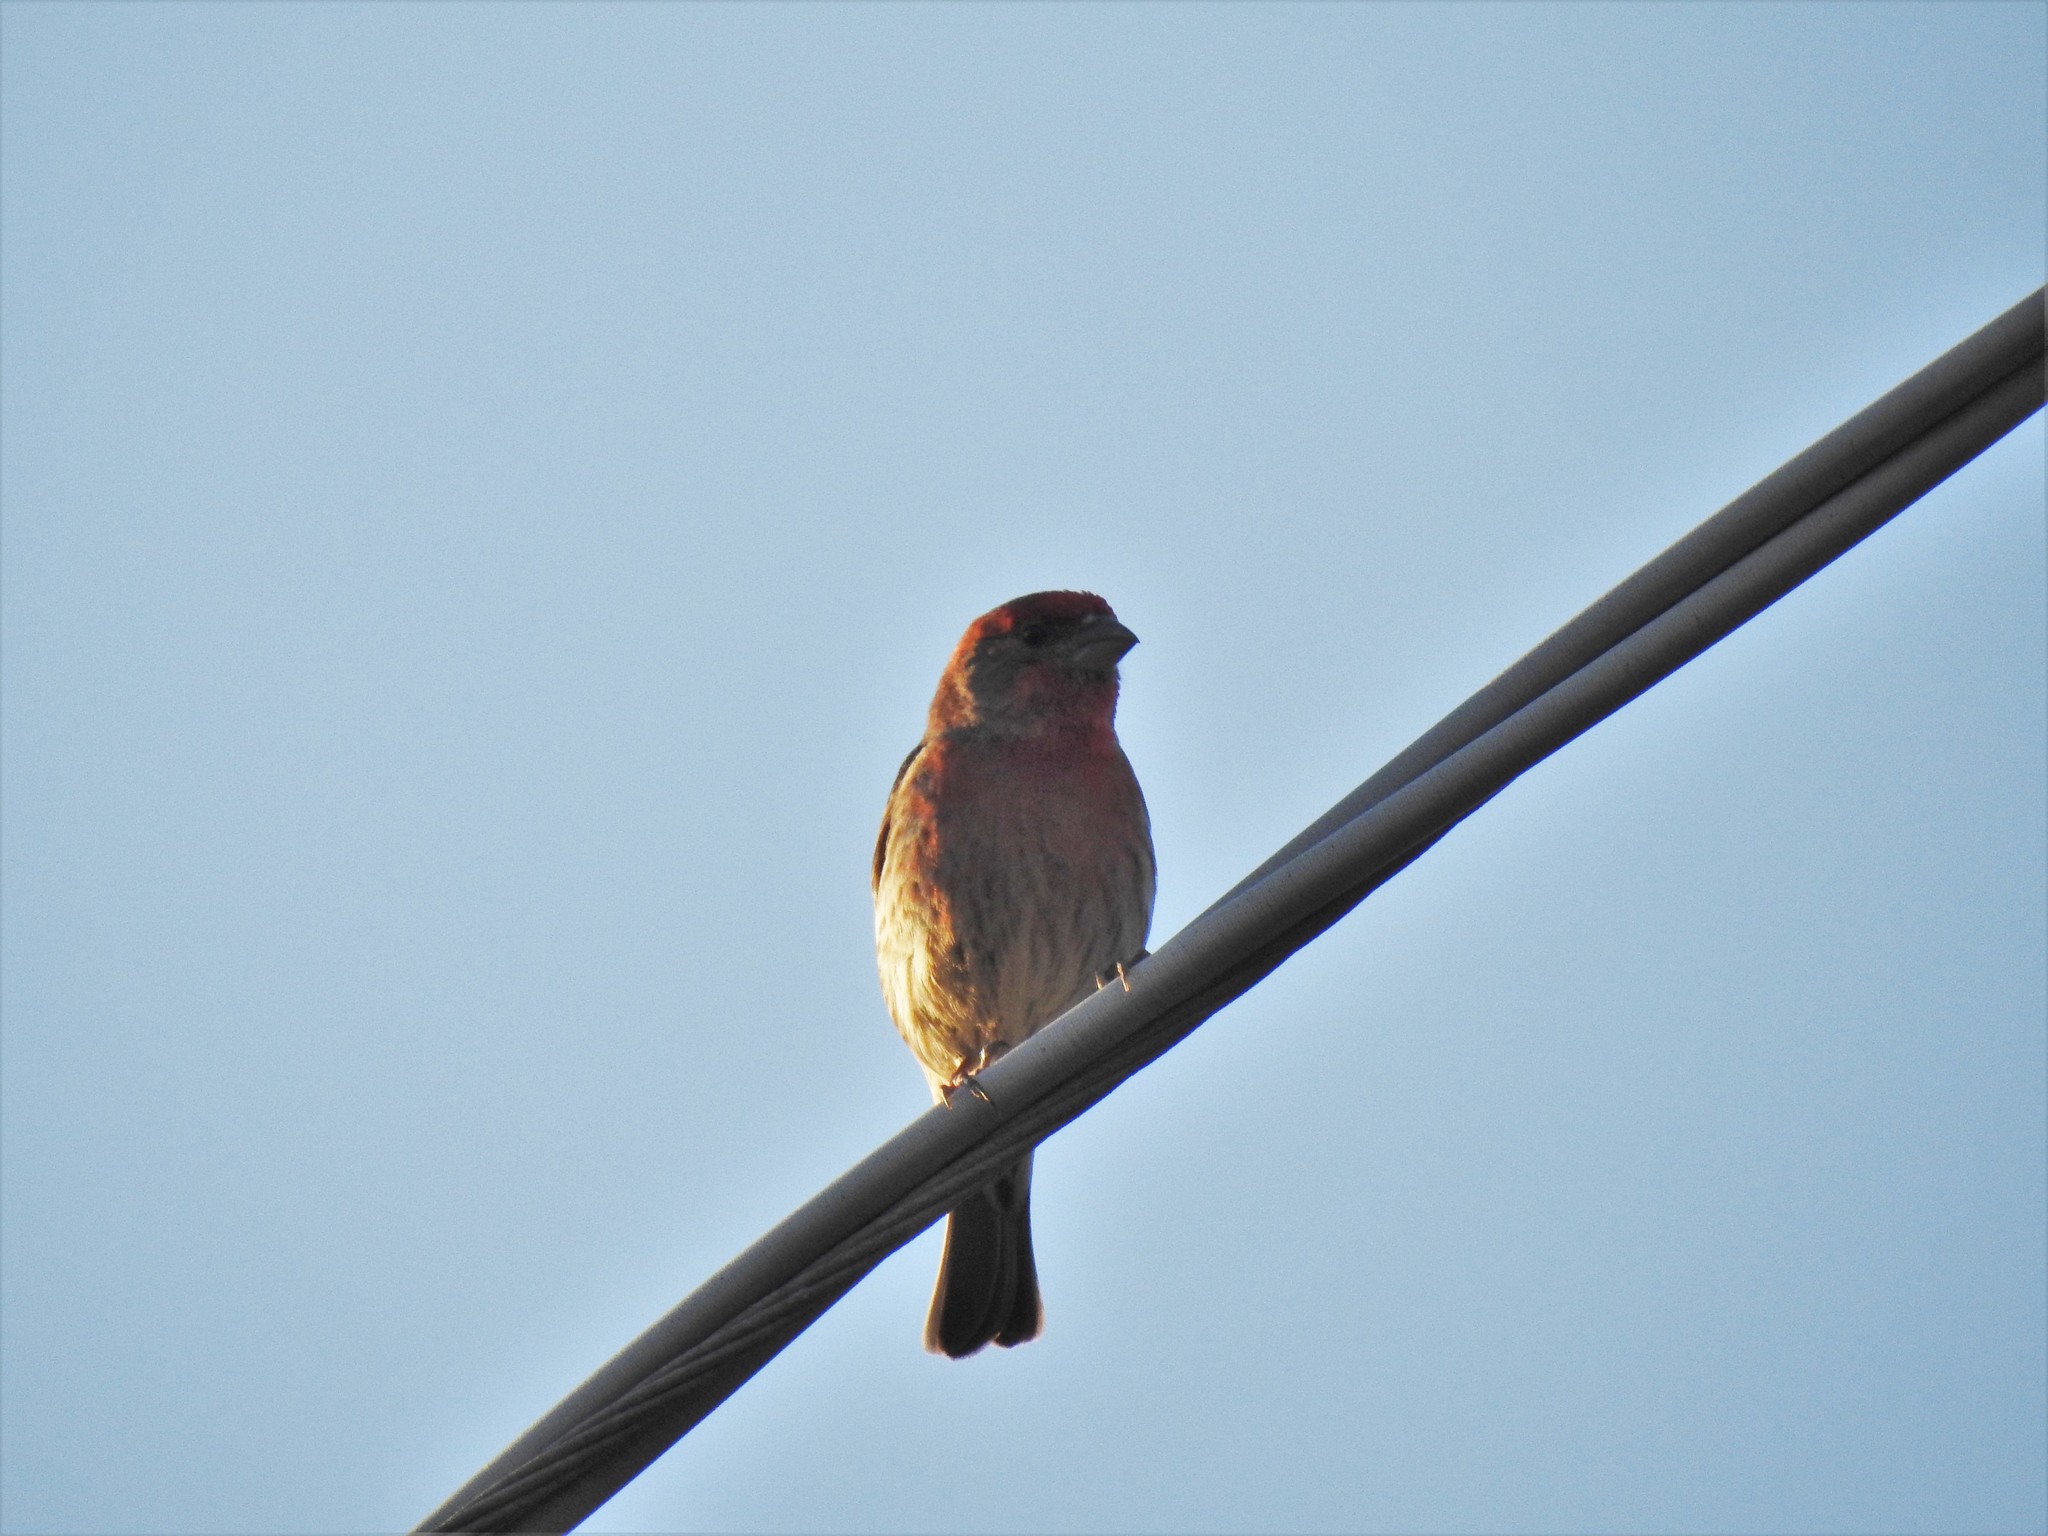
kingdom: Animalia
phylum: Chordata
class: Aves
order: Passeriformes
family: Fringillidae
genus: Haemorhous
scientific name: Haemorhous mexicanus
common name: House finch
